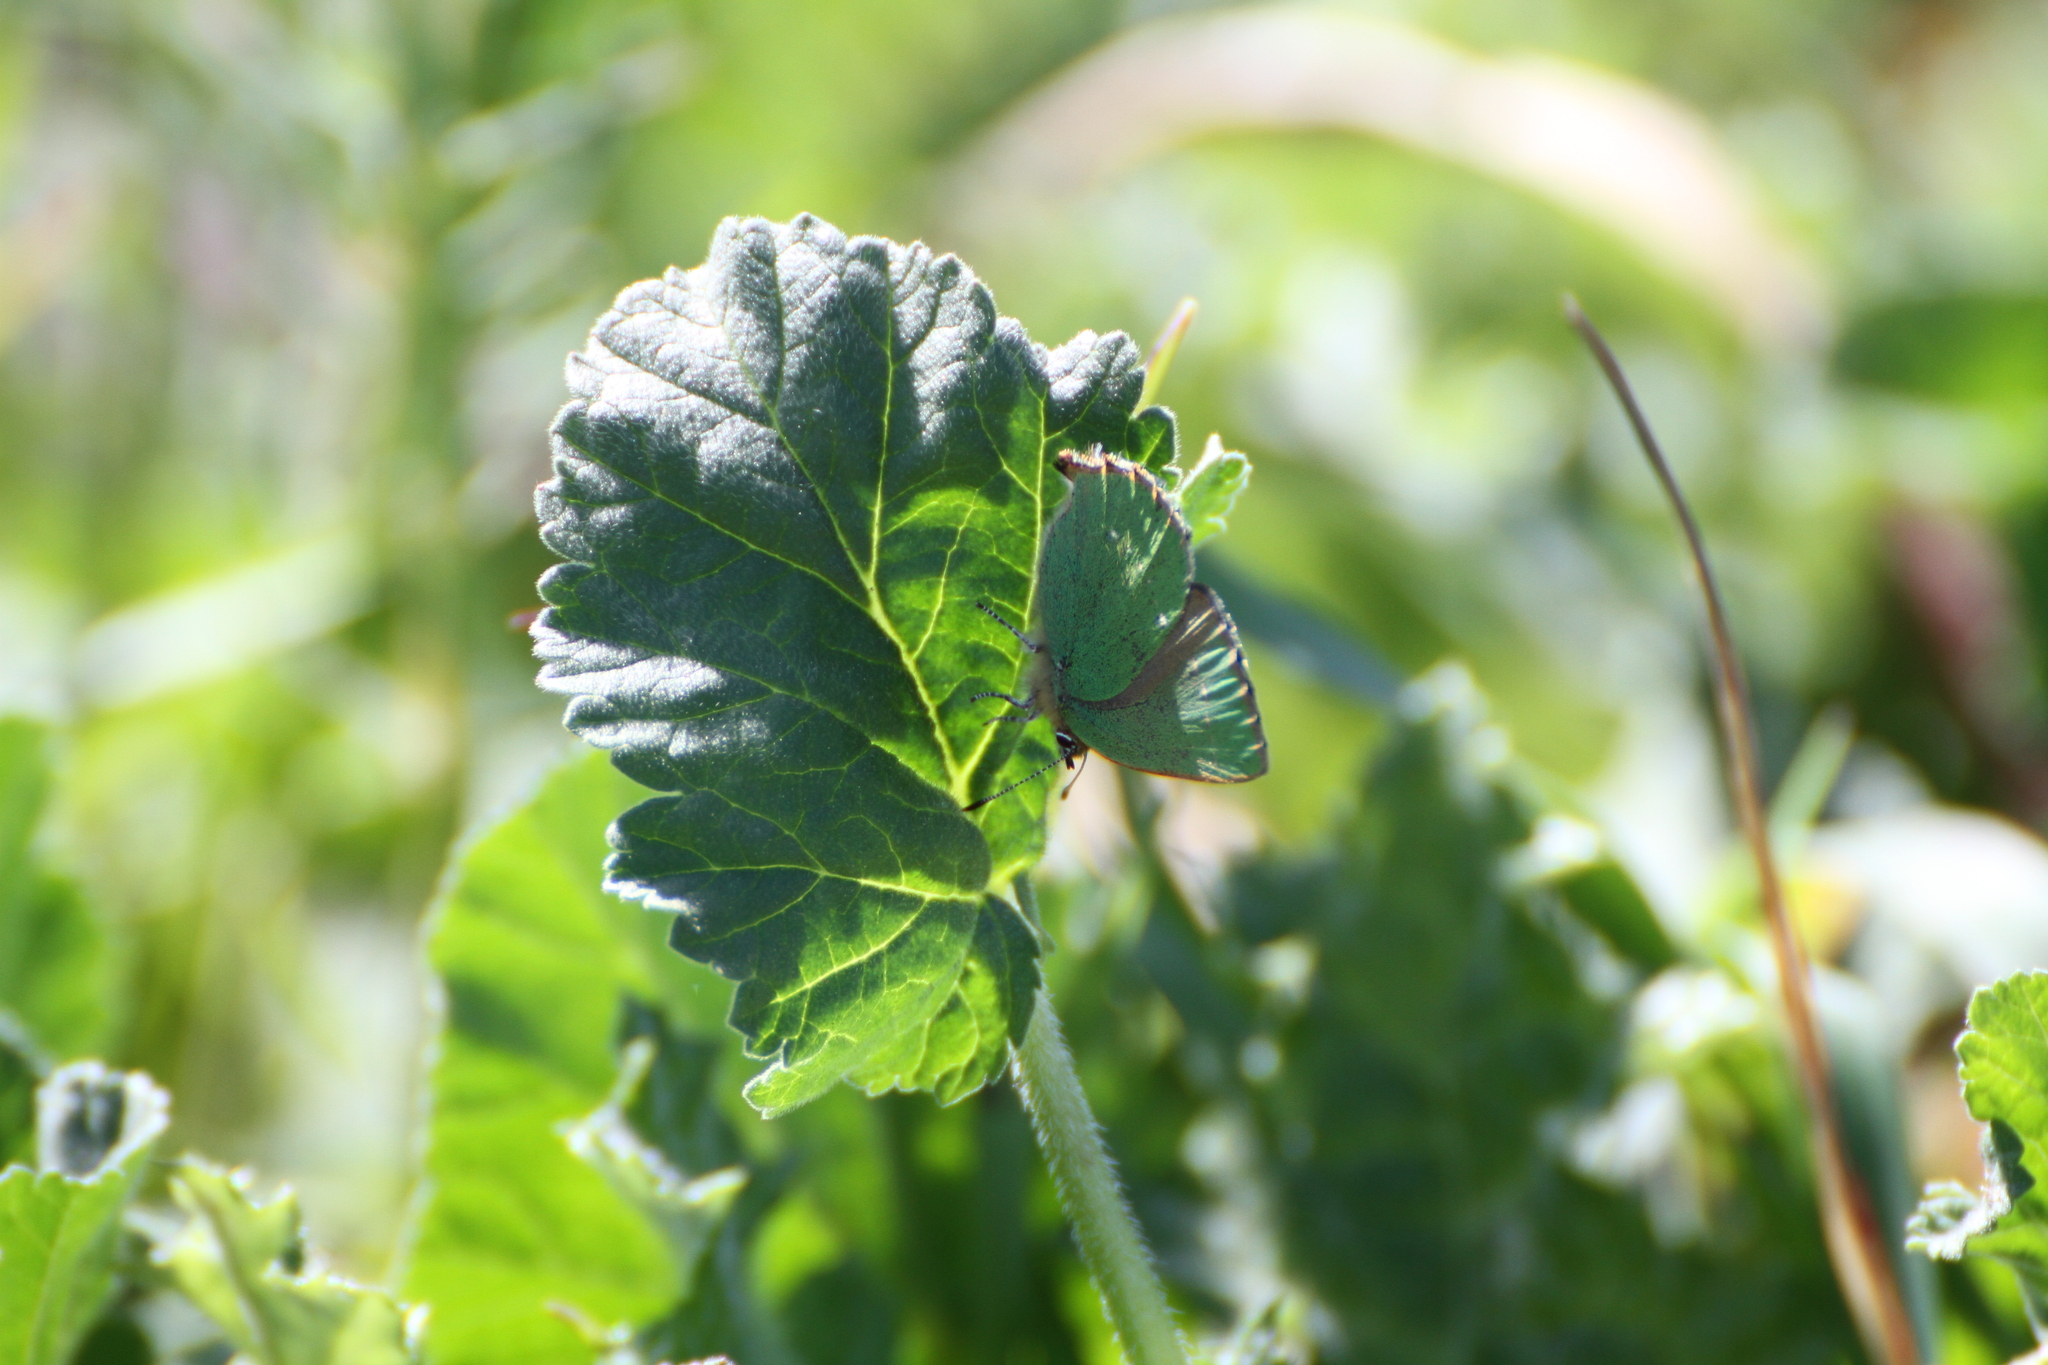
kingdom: Animalia
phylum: Arthropoda
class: Insecta
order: Lepidoptera
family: Lycaenidae
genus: Callophrys
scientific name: Callophrys rubi
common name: Green hairstreak
